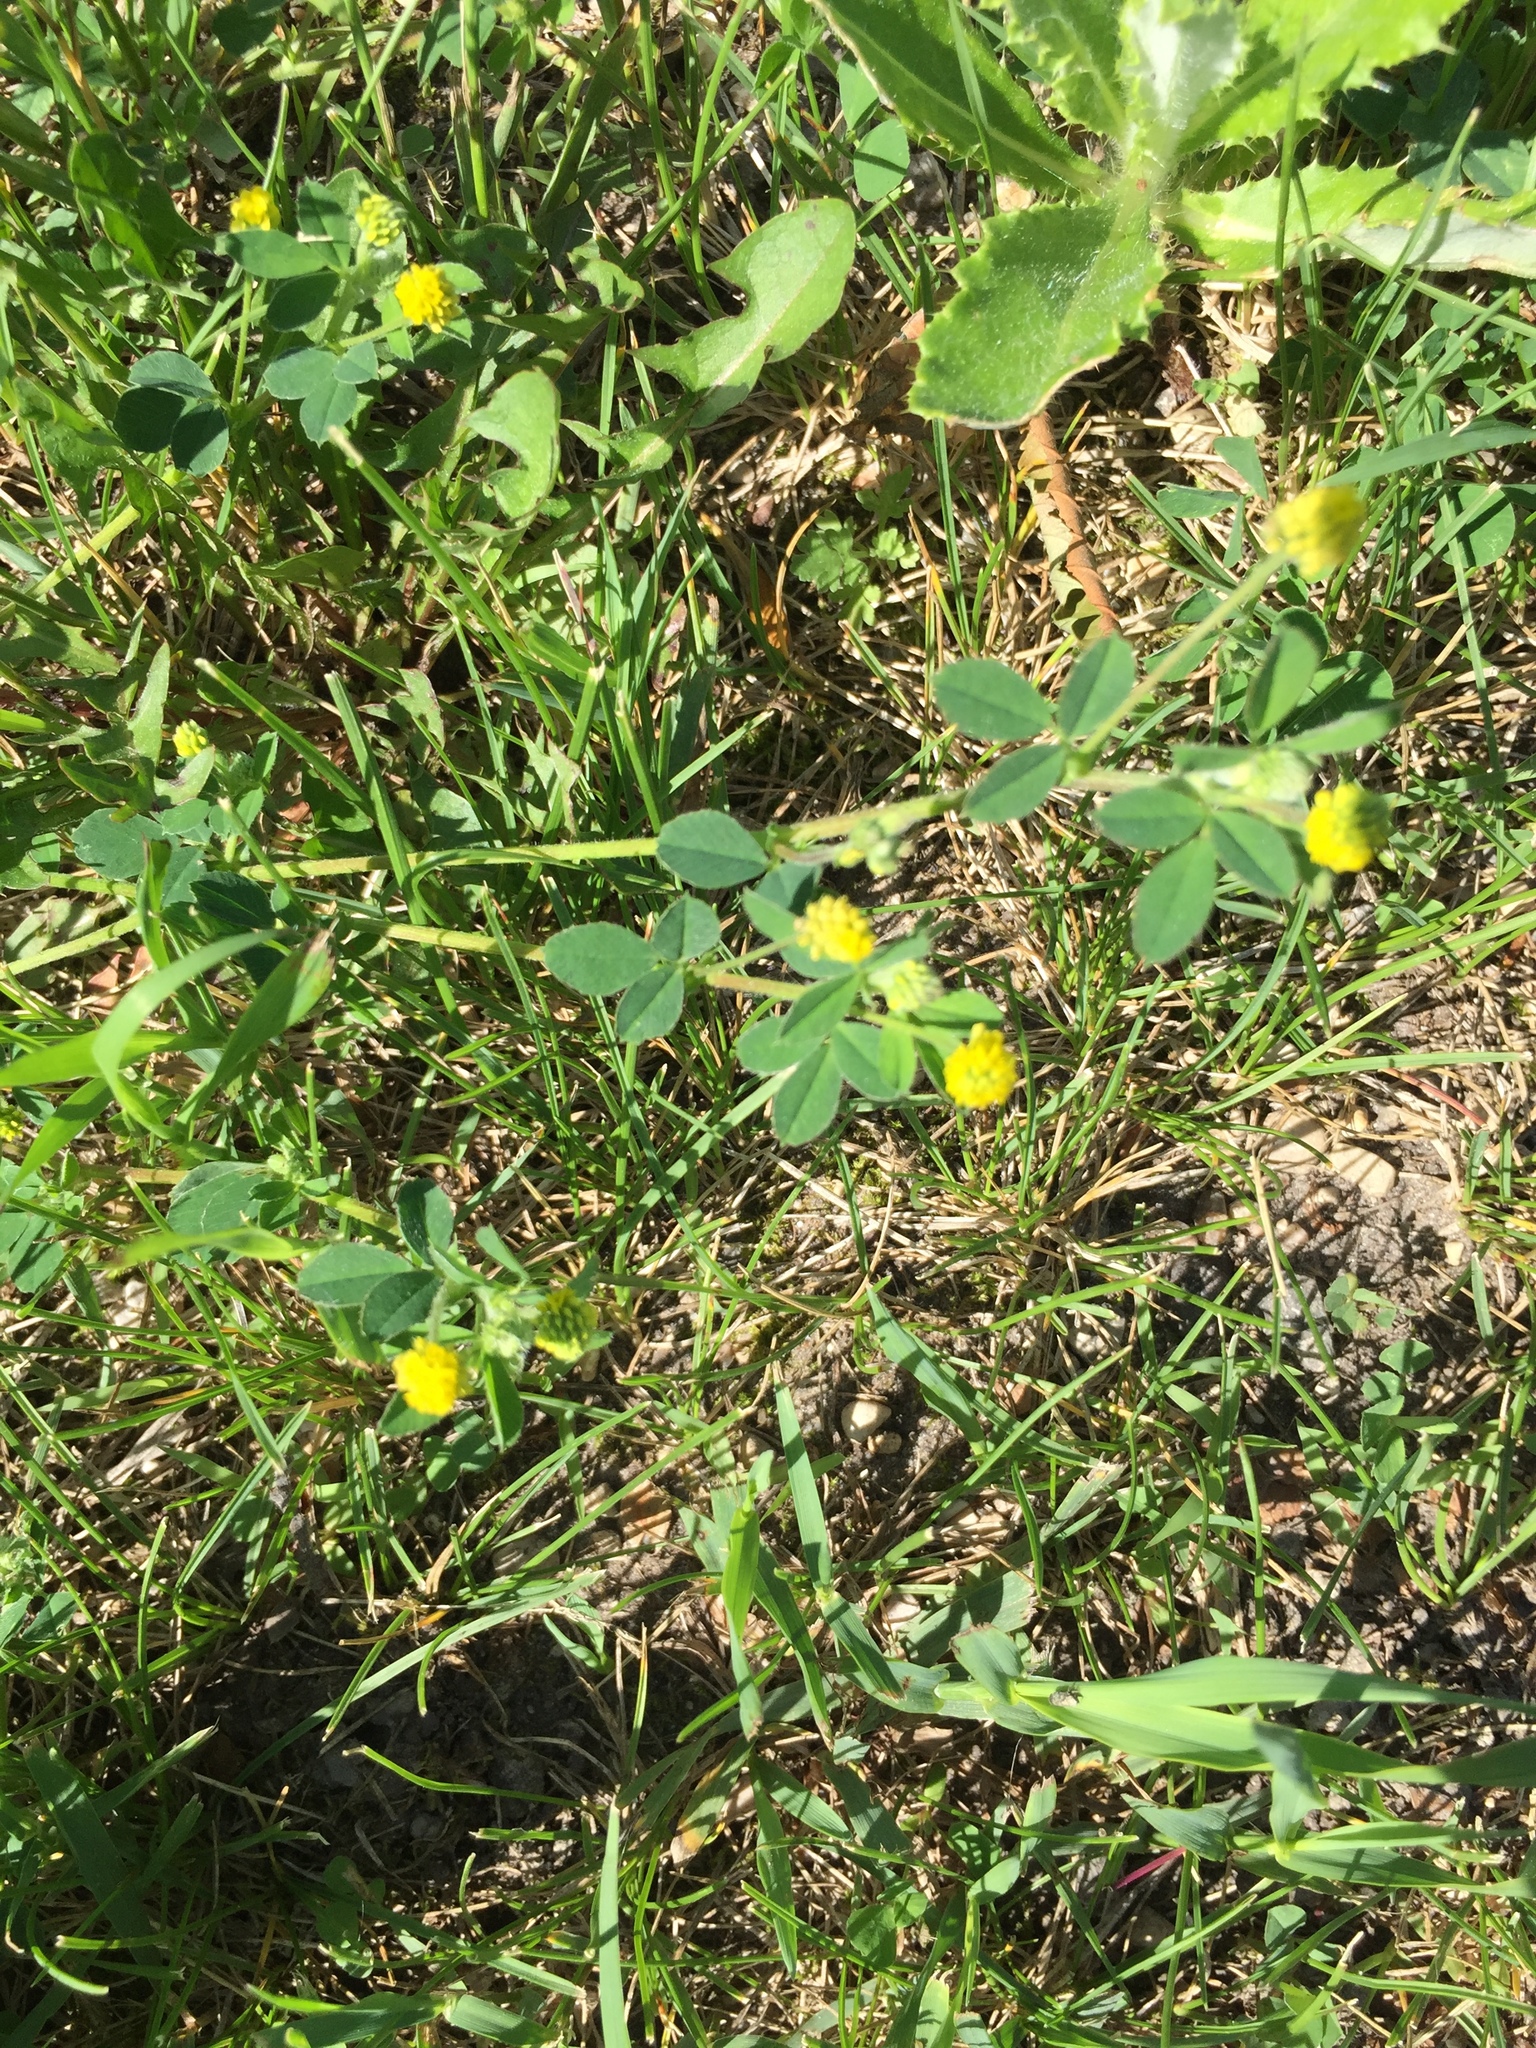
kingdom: Plantae
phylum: Tracheophyta
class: Magnoliopsida
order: Fabales
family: Fabaceae
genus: Medicago
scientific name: Medicago lupulina
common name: Black medick
